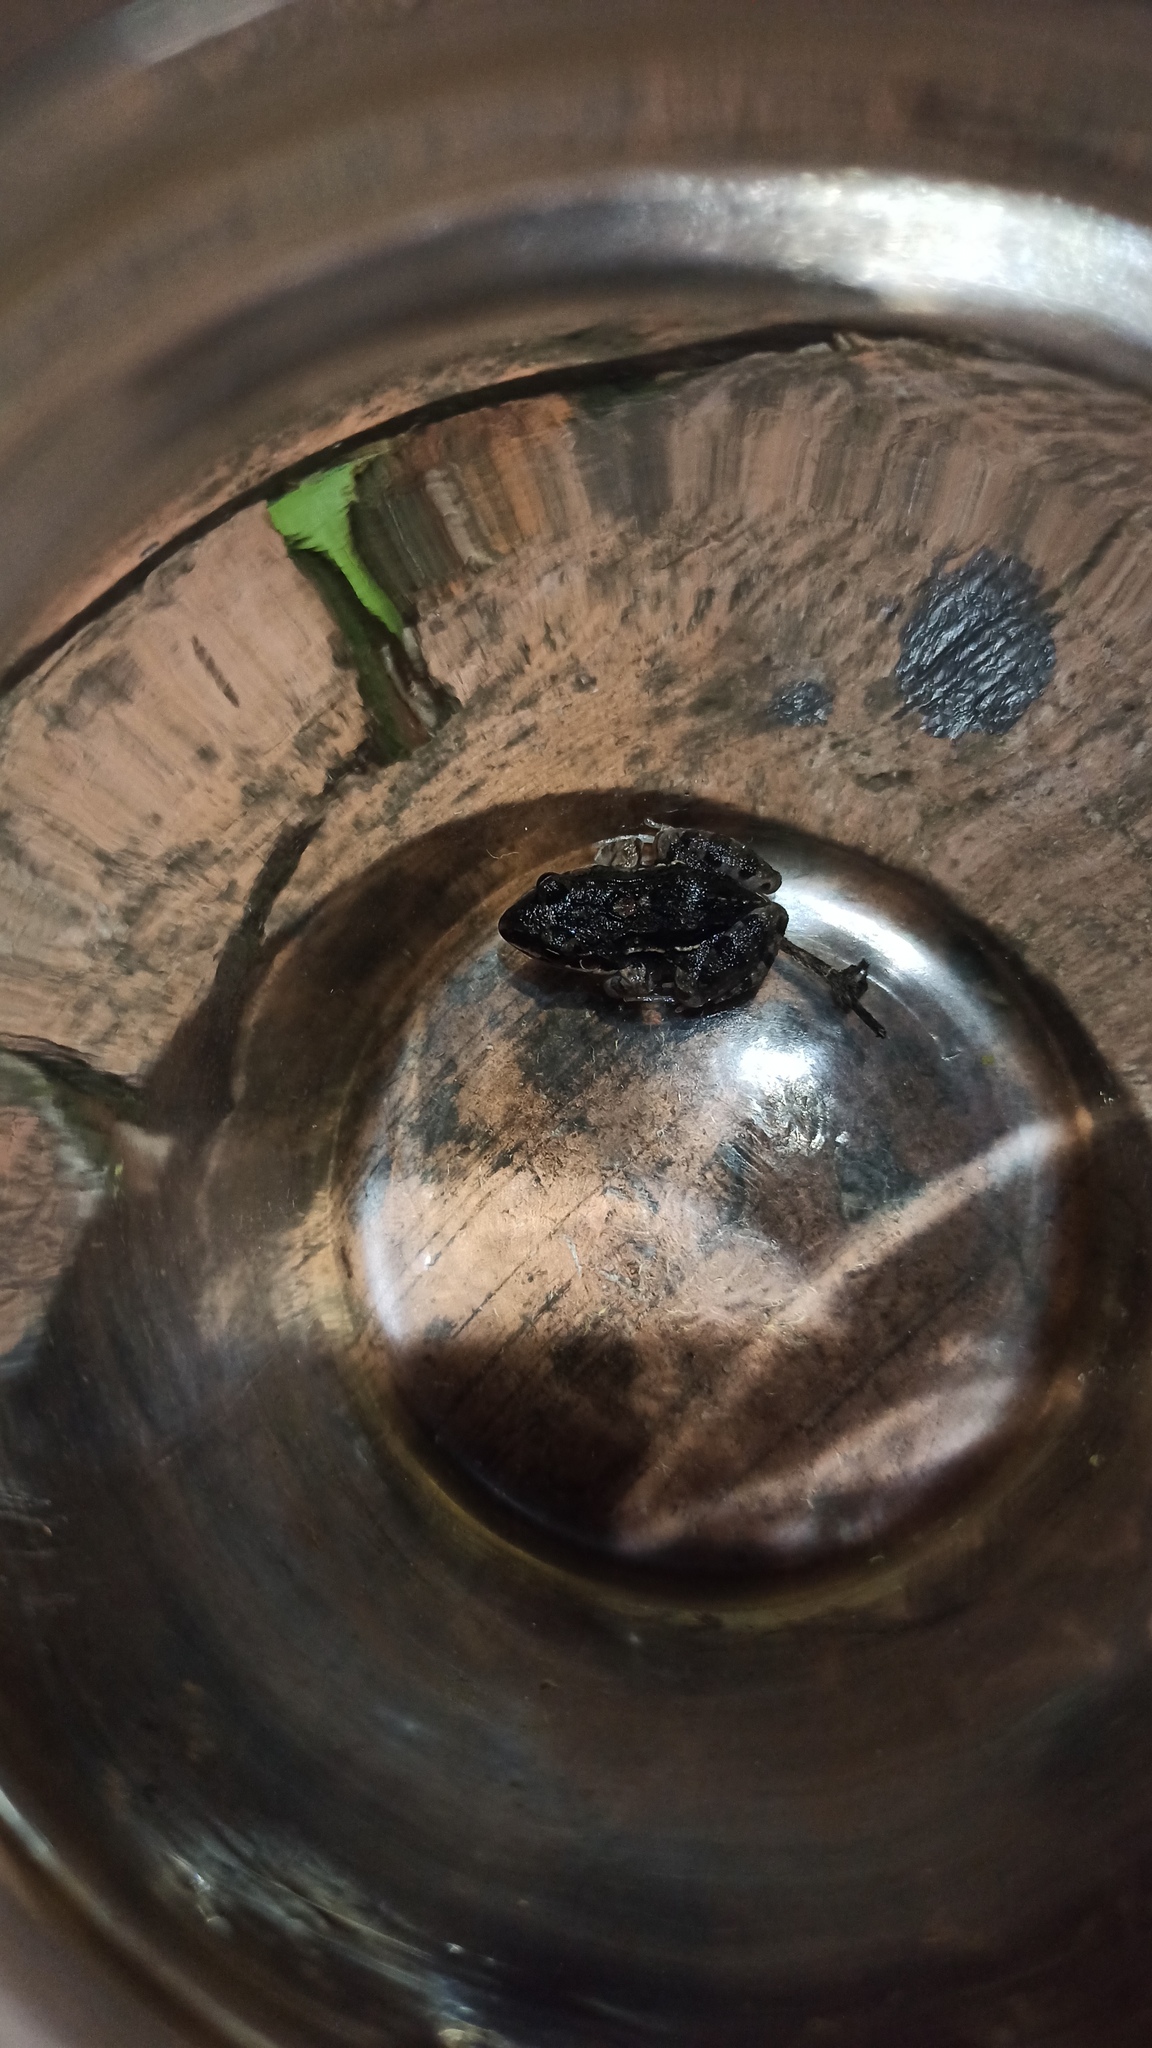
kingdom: Animalia
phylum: Chordata
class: Amphibia
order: Anura
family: Leptodactylidae
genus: Leptodactylus
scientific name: Leptodactylus latinasus
